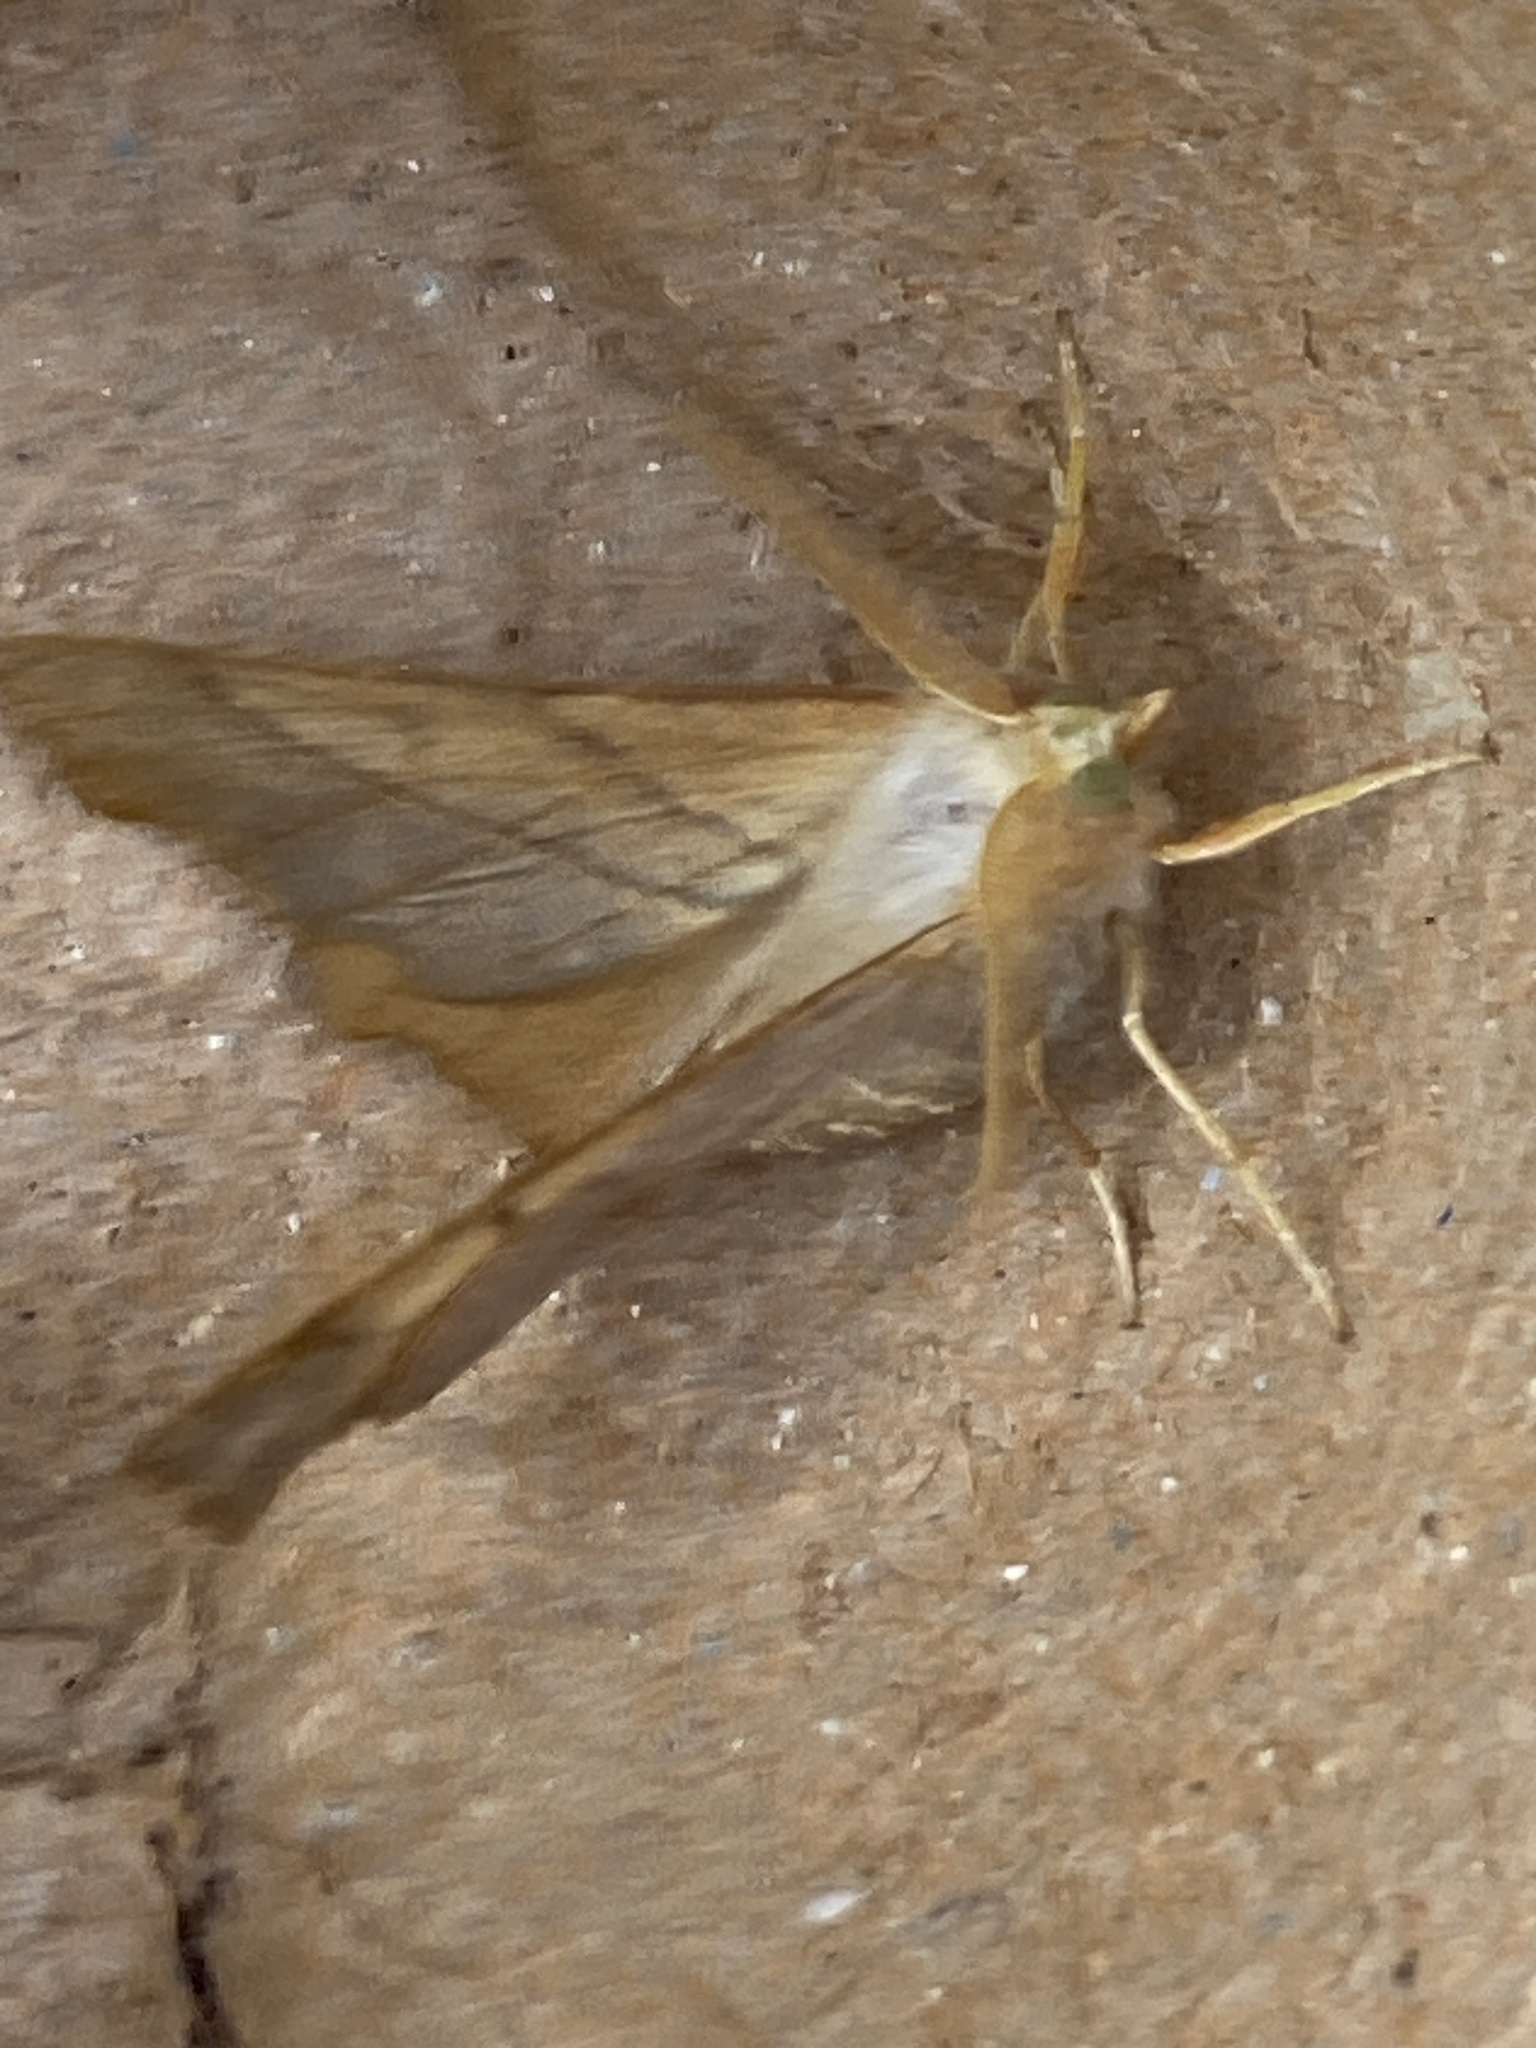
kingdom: Animalia
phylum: Arthropoda
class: Insecta
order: Lepidoptera
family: Geometridae
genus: Ennomos
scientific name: Ennomos fuscantaria
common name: Dusky thorn
